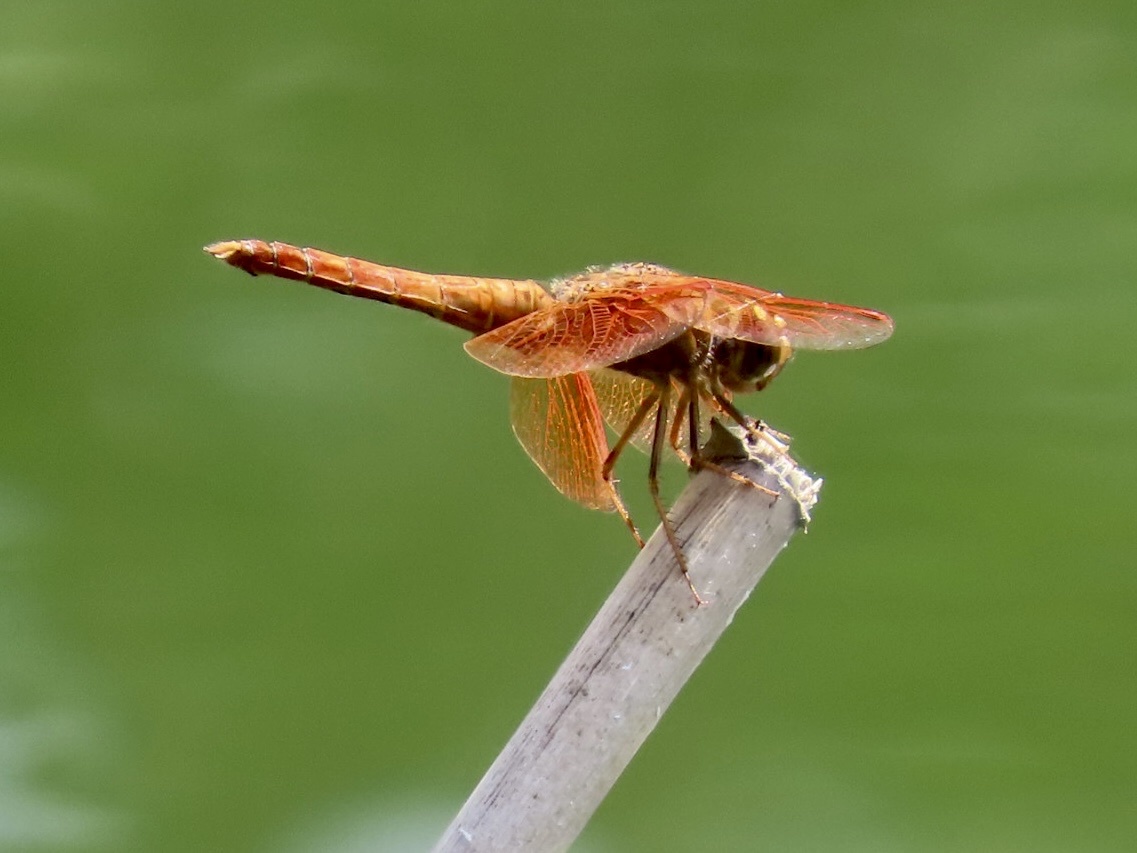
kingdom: Animalia
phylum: Arthropoda
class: Insecta
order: Odonata
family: Libellulidae
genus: Brachythemis
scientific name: Brachythemis contaminata
